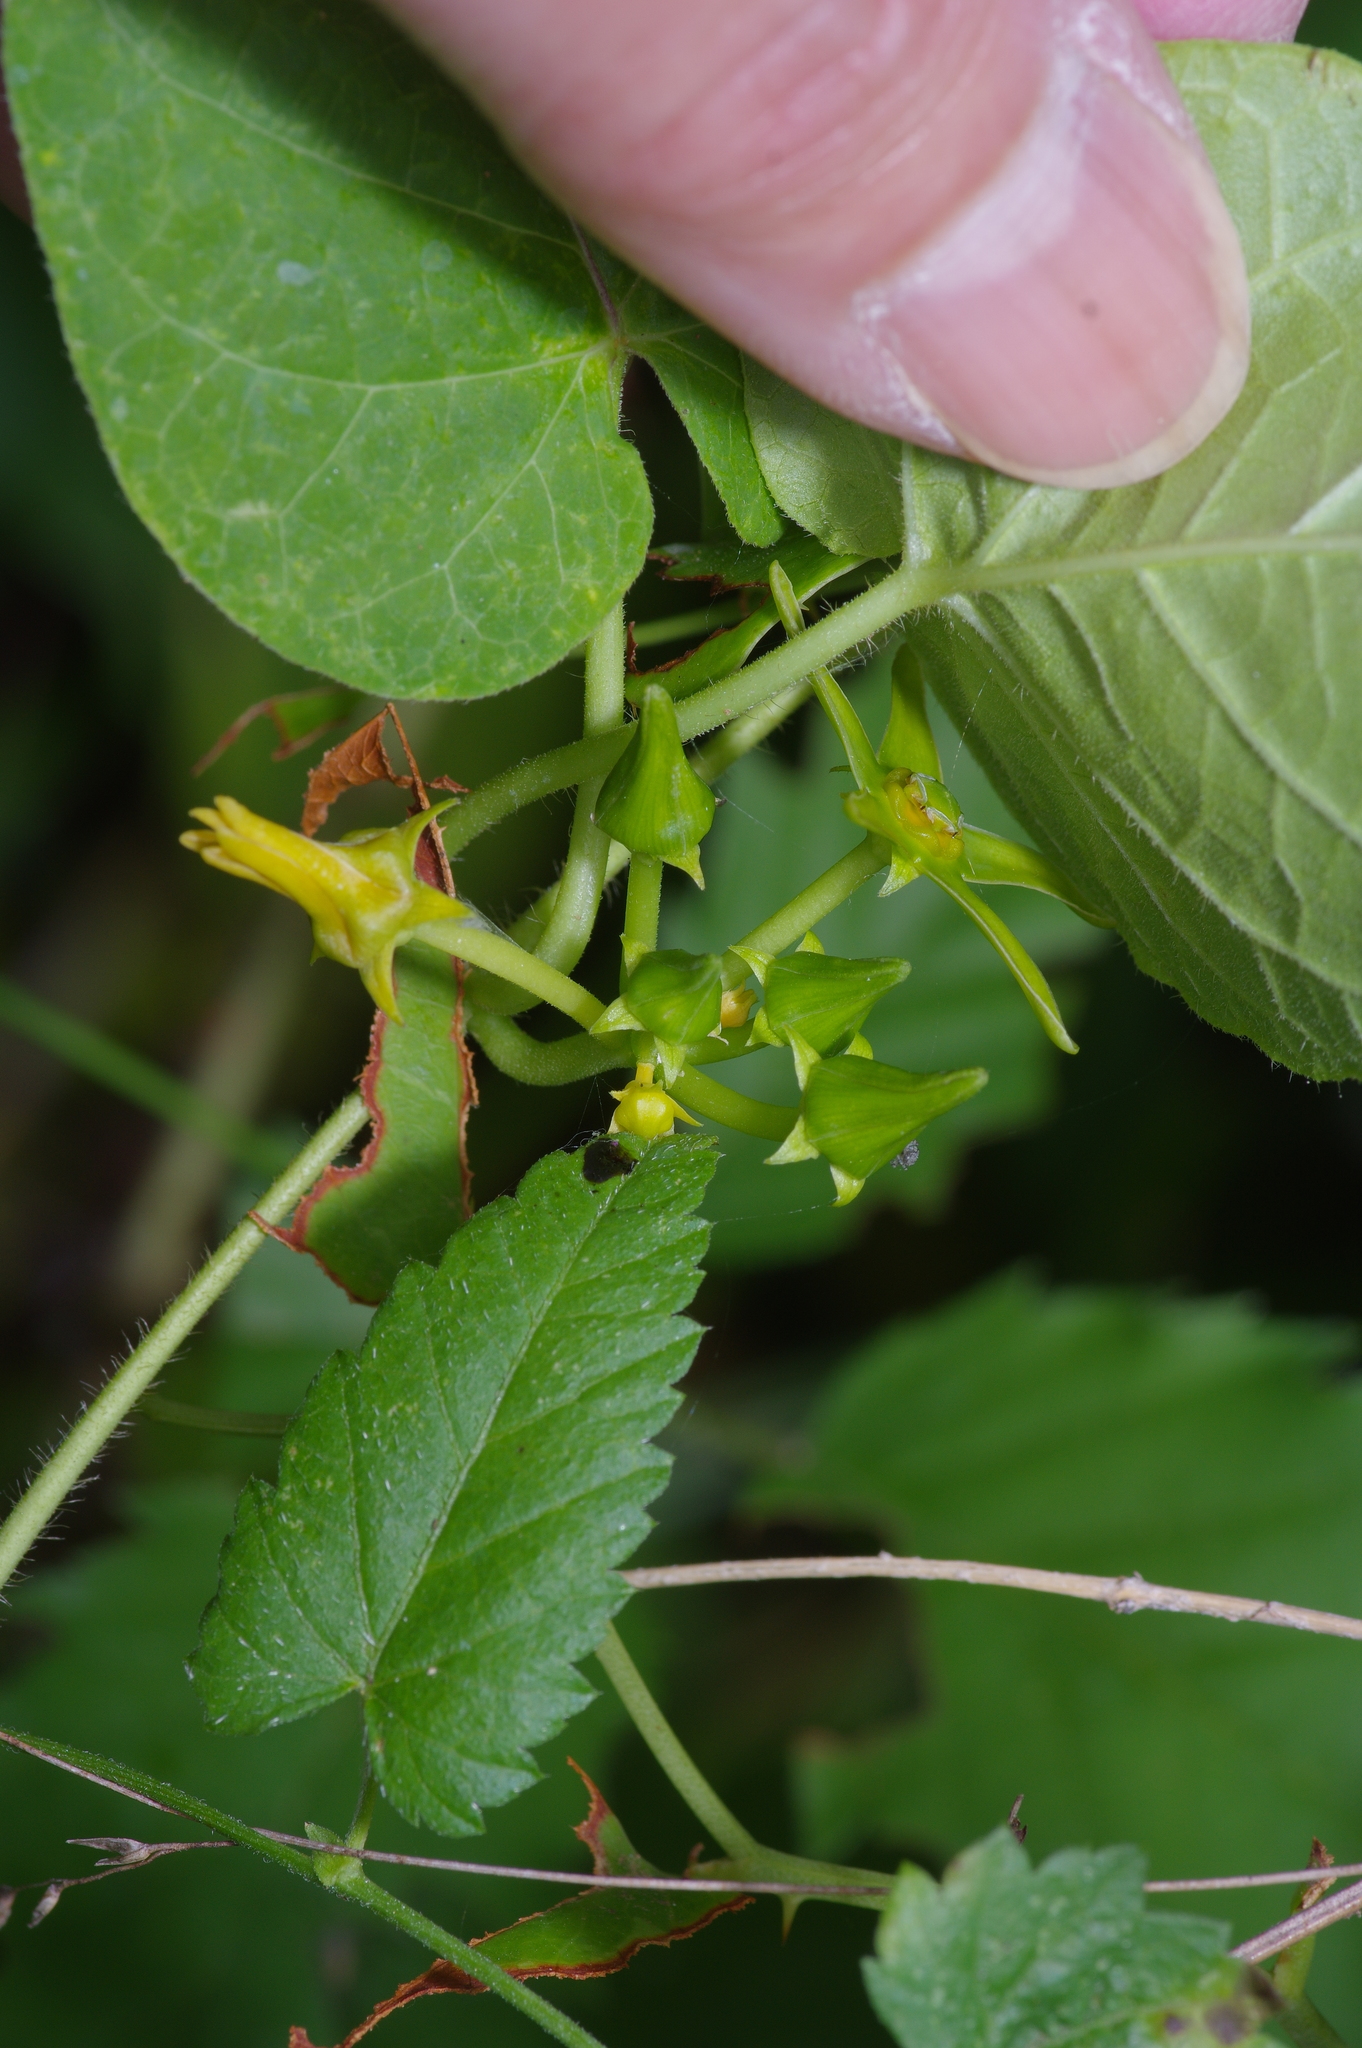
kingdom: Plantae
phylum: Tracheophyta
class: Magnoliopsida
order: Gentianales
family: Apocynaceae
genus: Gonolobus
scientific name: Gonolobus suberosus
